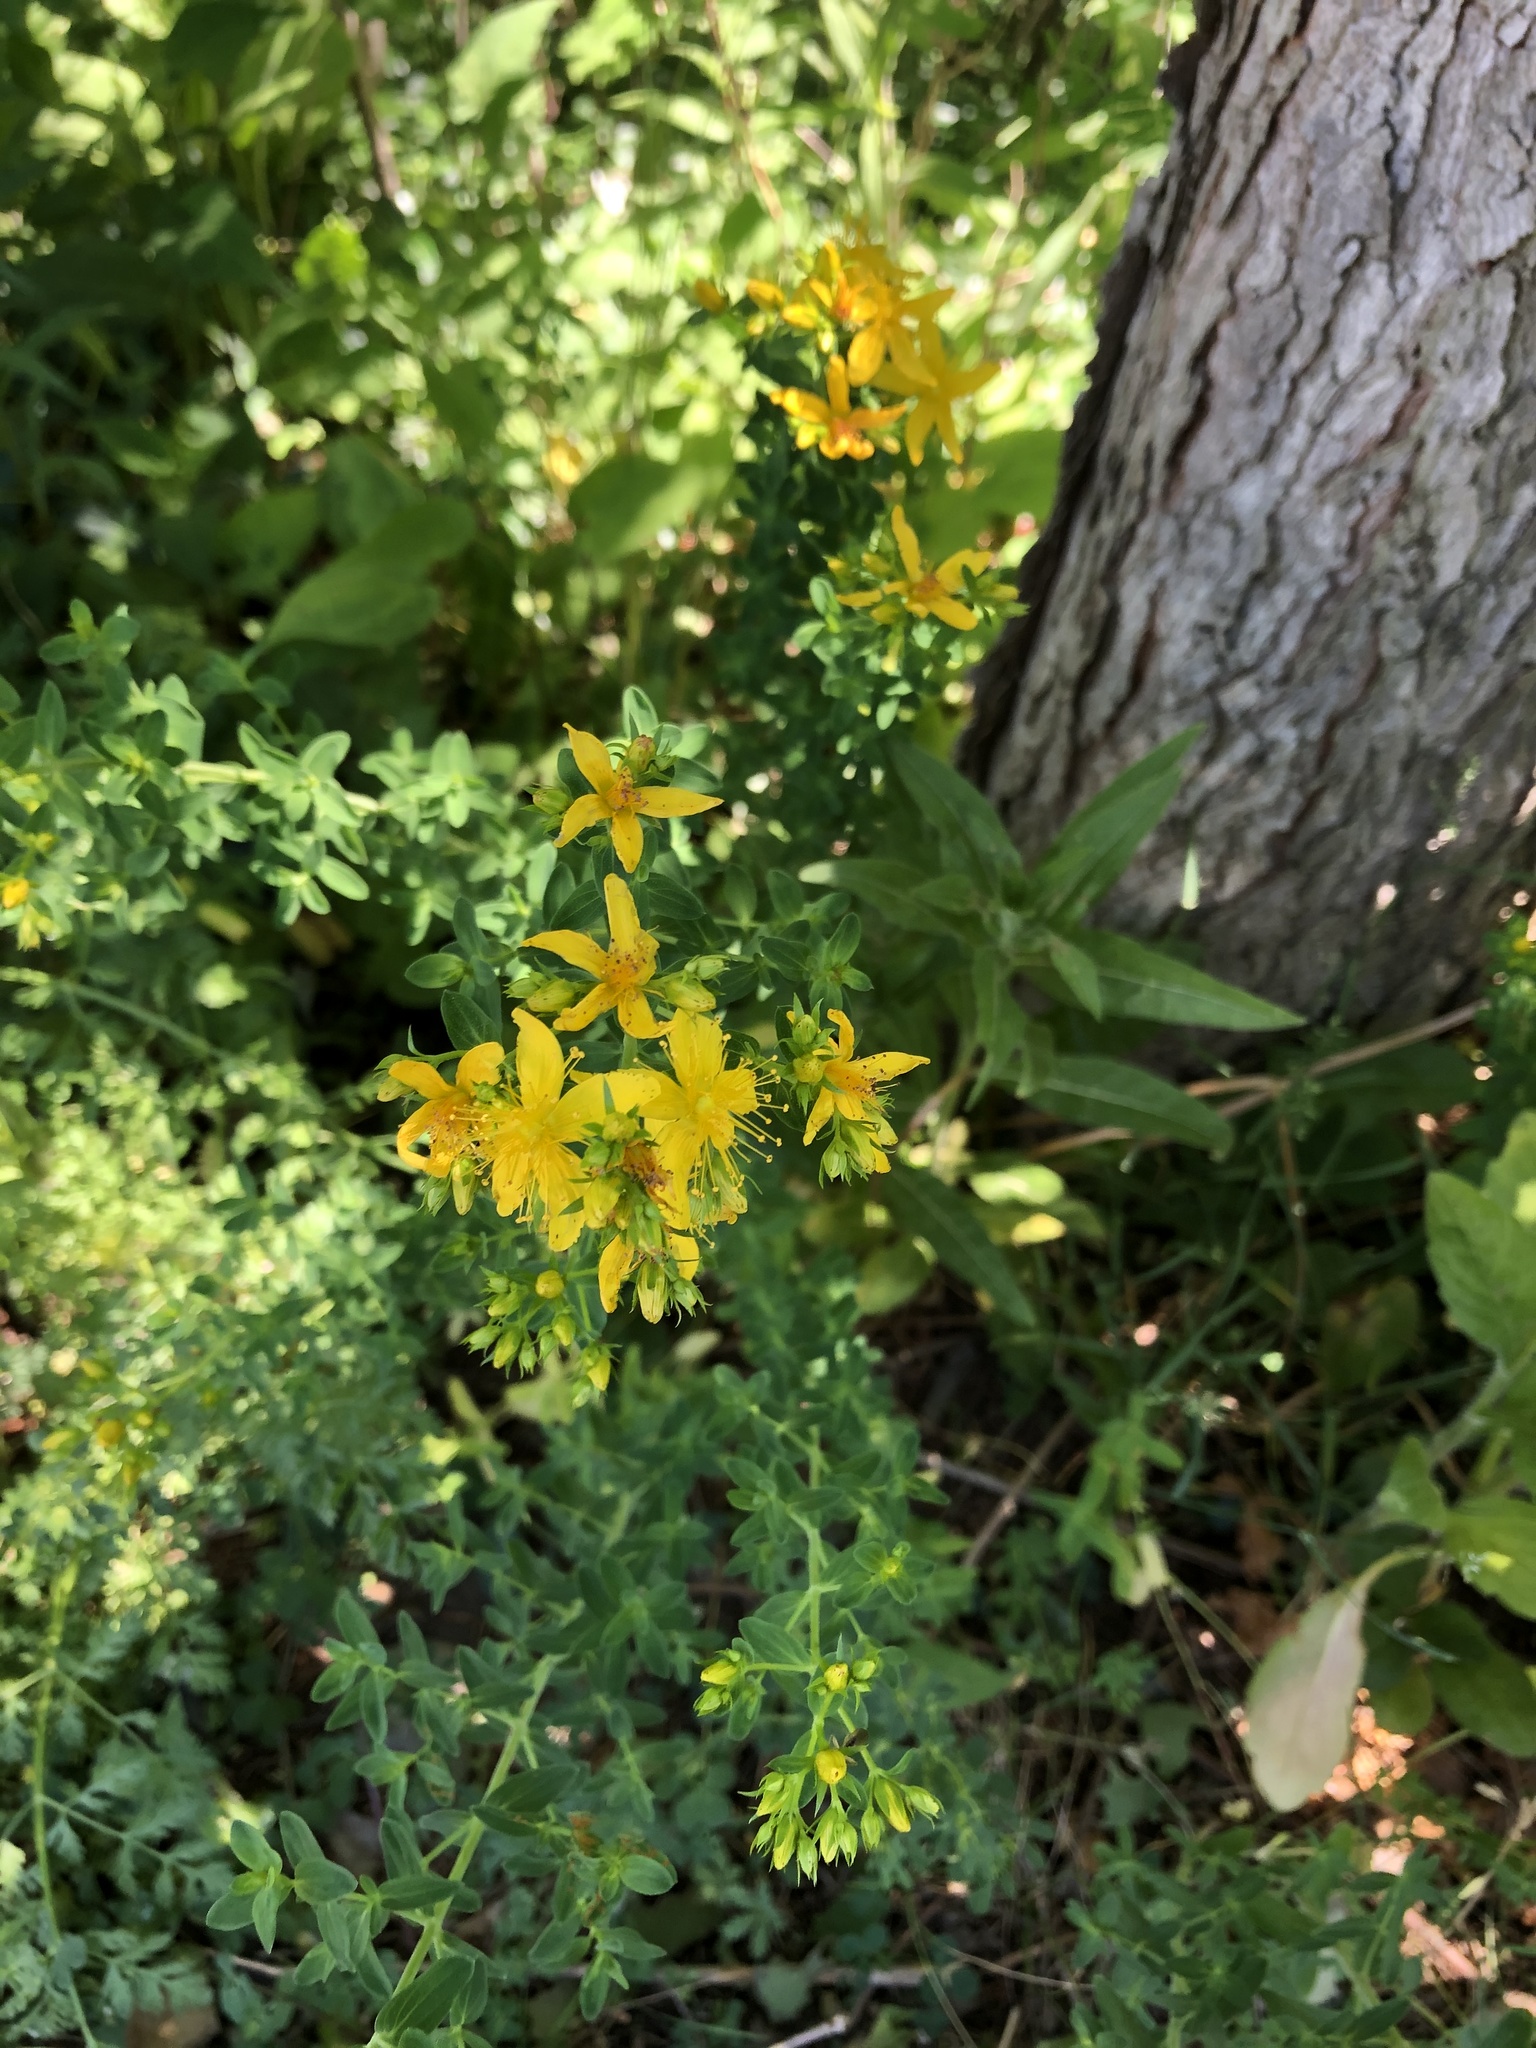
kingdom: Plantae
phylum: Tracheophyta
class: Magnoliopsida
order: Malpighiales
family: Hypericaceae
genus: Hypericum
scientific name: Hypericum perforatum
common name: Common st. johnswort
